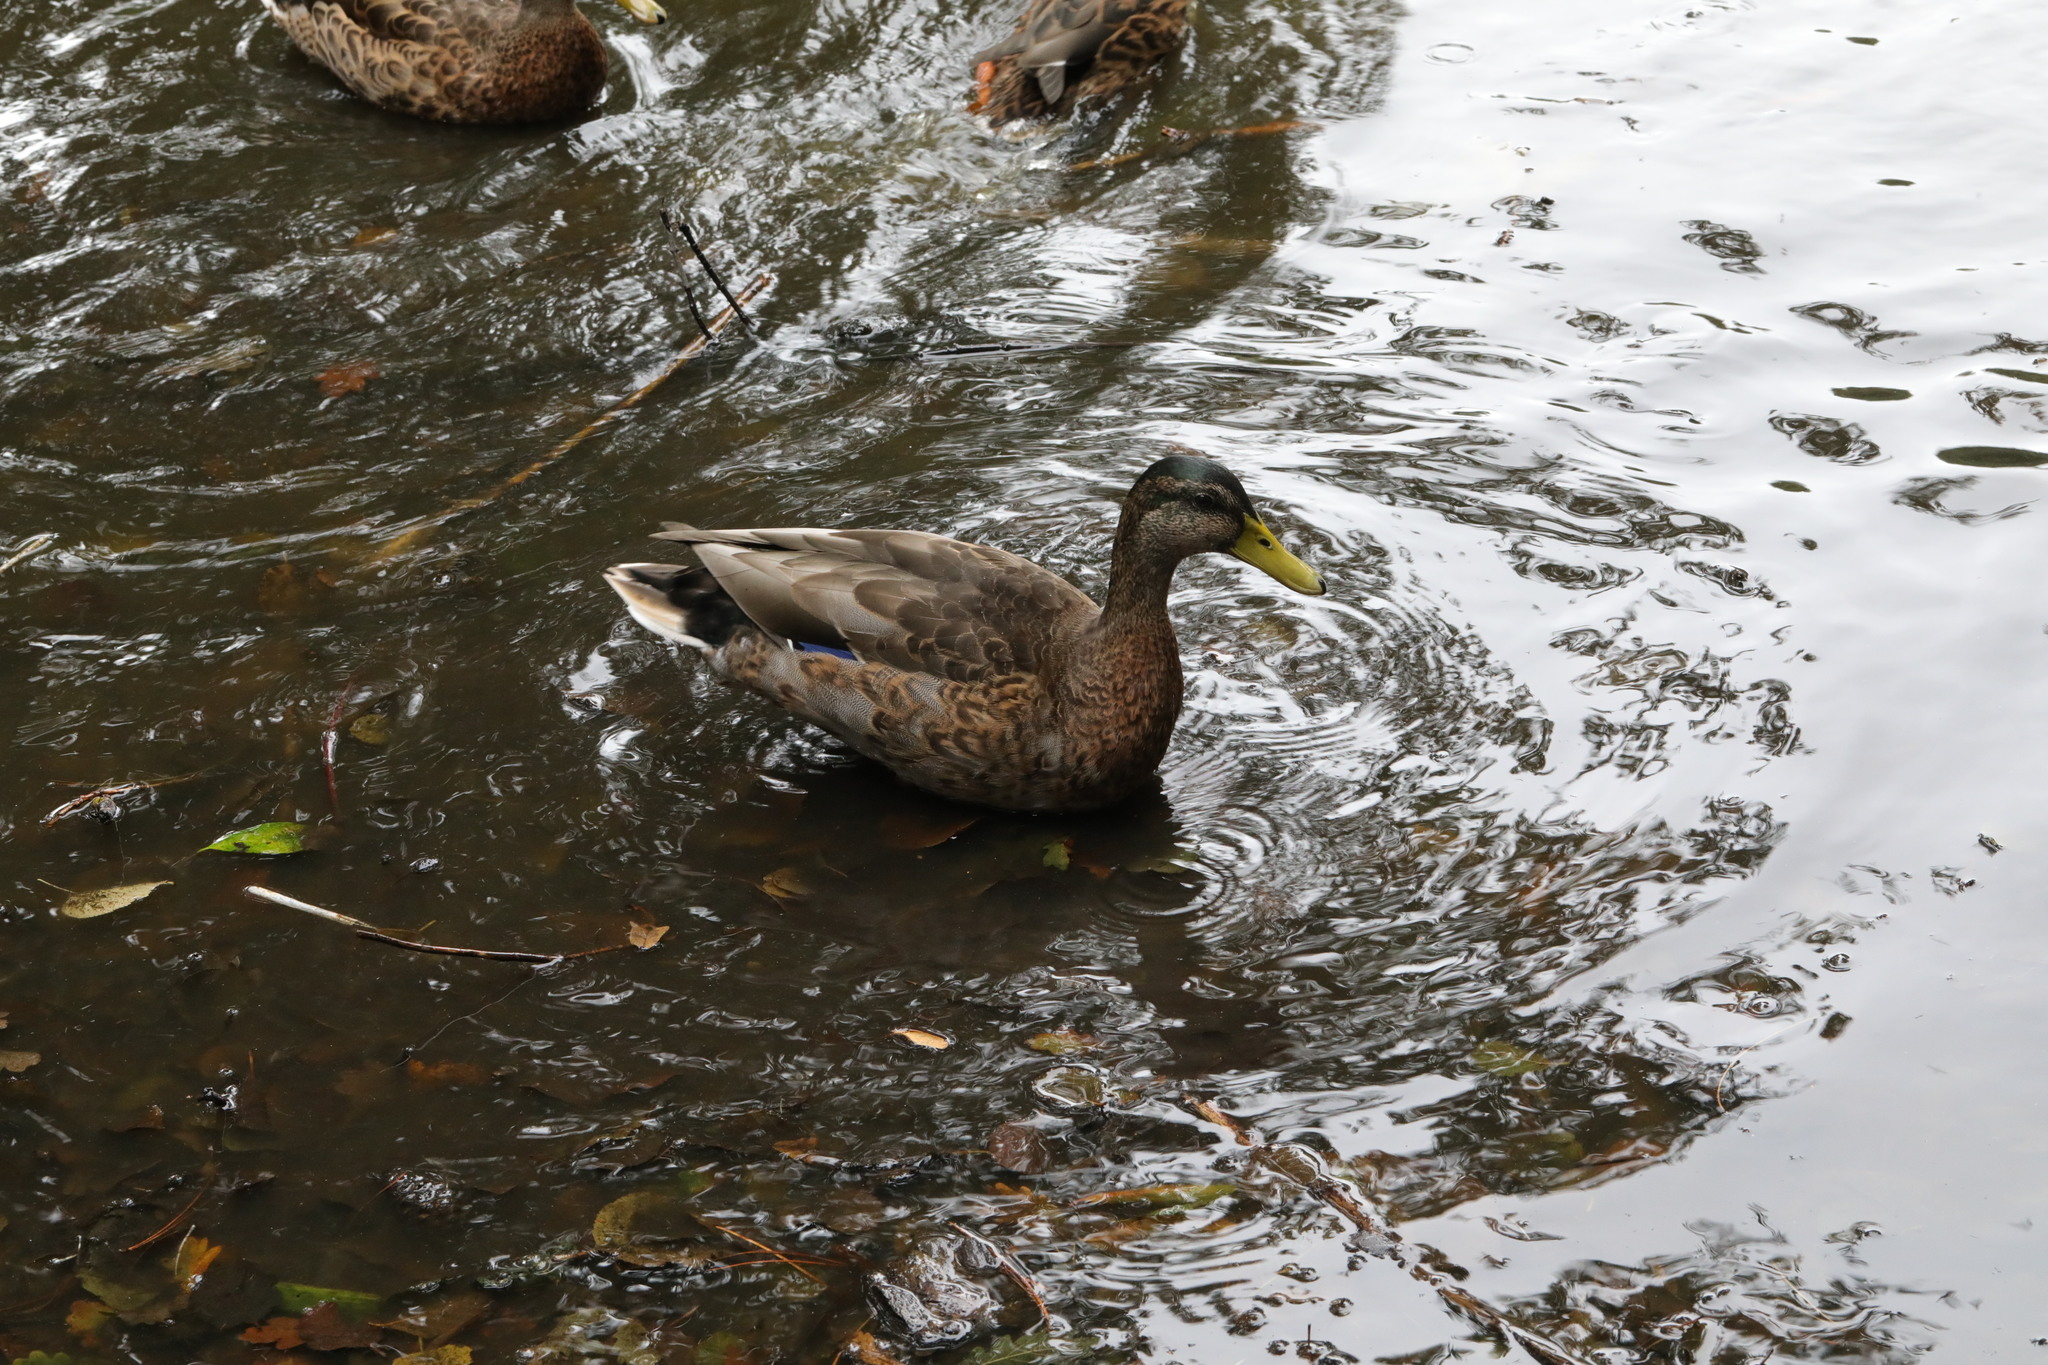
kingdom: Animalia
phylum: Chordata
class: Aves
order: Anseriformes
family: Anatidae
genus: Anas
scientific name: Anas platyrhynchos
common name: Mallard
